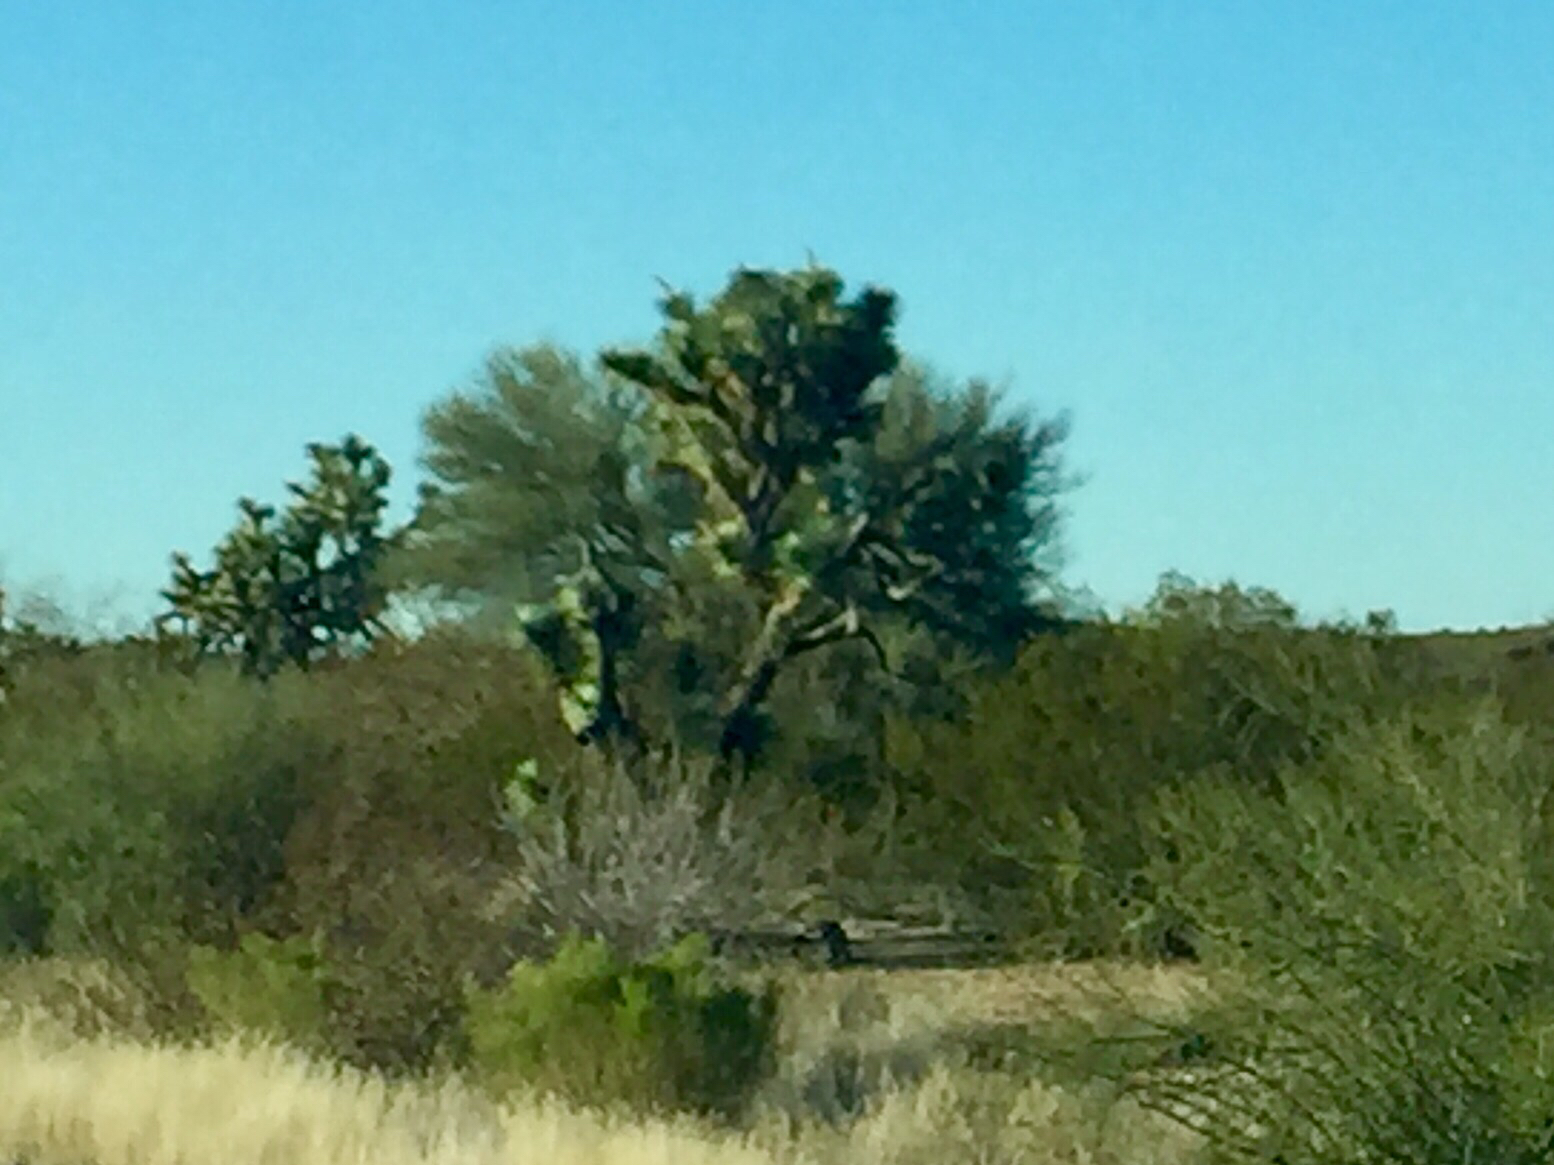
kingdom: Plantae
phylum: Tracheophyta
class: Liliopsida
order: Asparagales
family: Asparagaceae
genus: Yucca
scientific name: Yucca brevifolia
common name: Joshua tree
